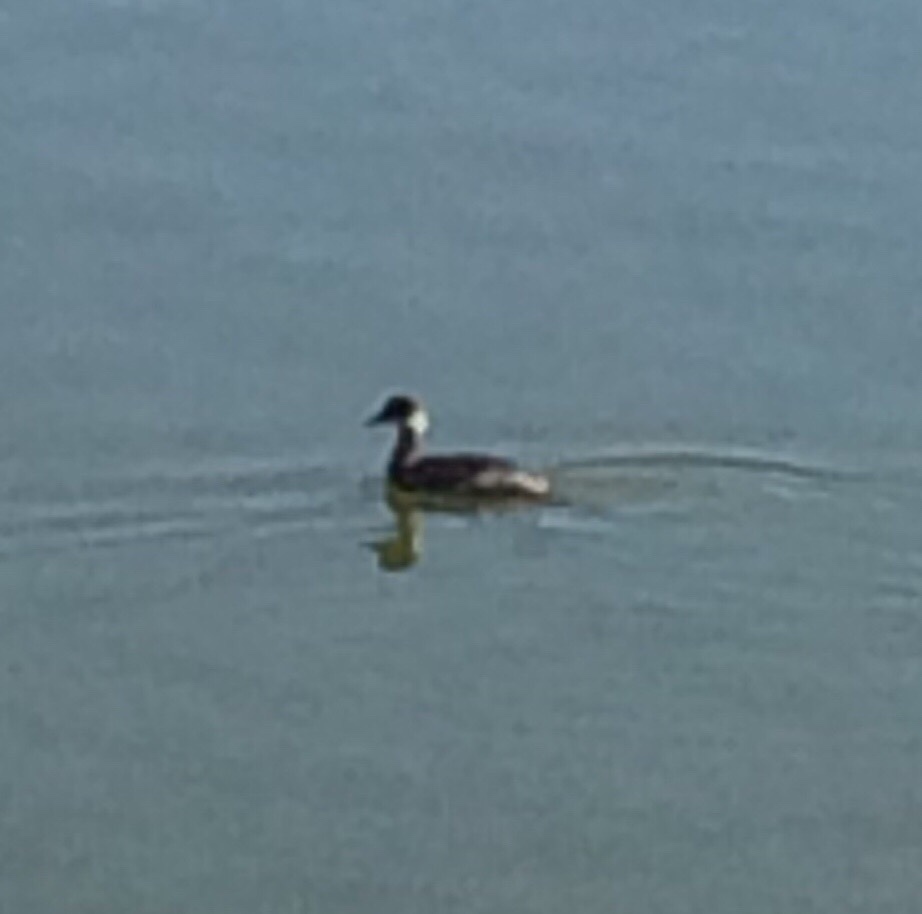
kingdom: Animalia
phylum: Chordata
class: Aves
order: Podicipediformes
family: Podicipedidae
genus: Podiceps
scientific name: Podiceps nigricollis
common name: Black-necked grebe
